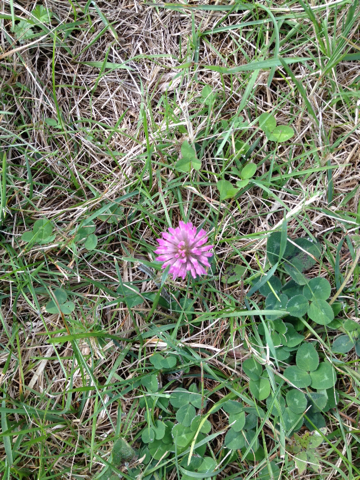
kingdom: Plantae
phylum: Tracheophyta
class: Magnoliopsida
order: Fabales
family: Fabaceae
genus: Trifolium
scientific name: Trifolium pratense
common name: Red clover
